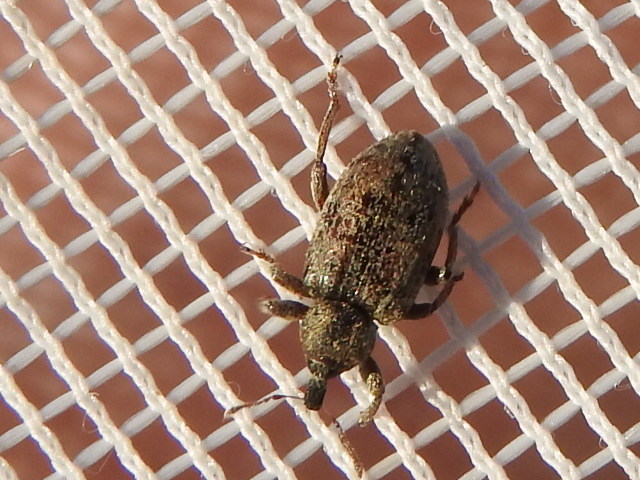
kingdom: Animalia
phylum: Arthropoda
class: Insecta
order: Coleoptera
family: Curculionidae
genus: Hypera
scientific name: Hypera postica
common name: Weevil
